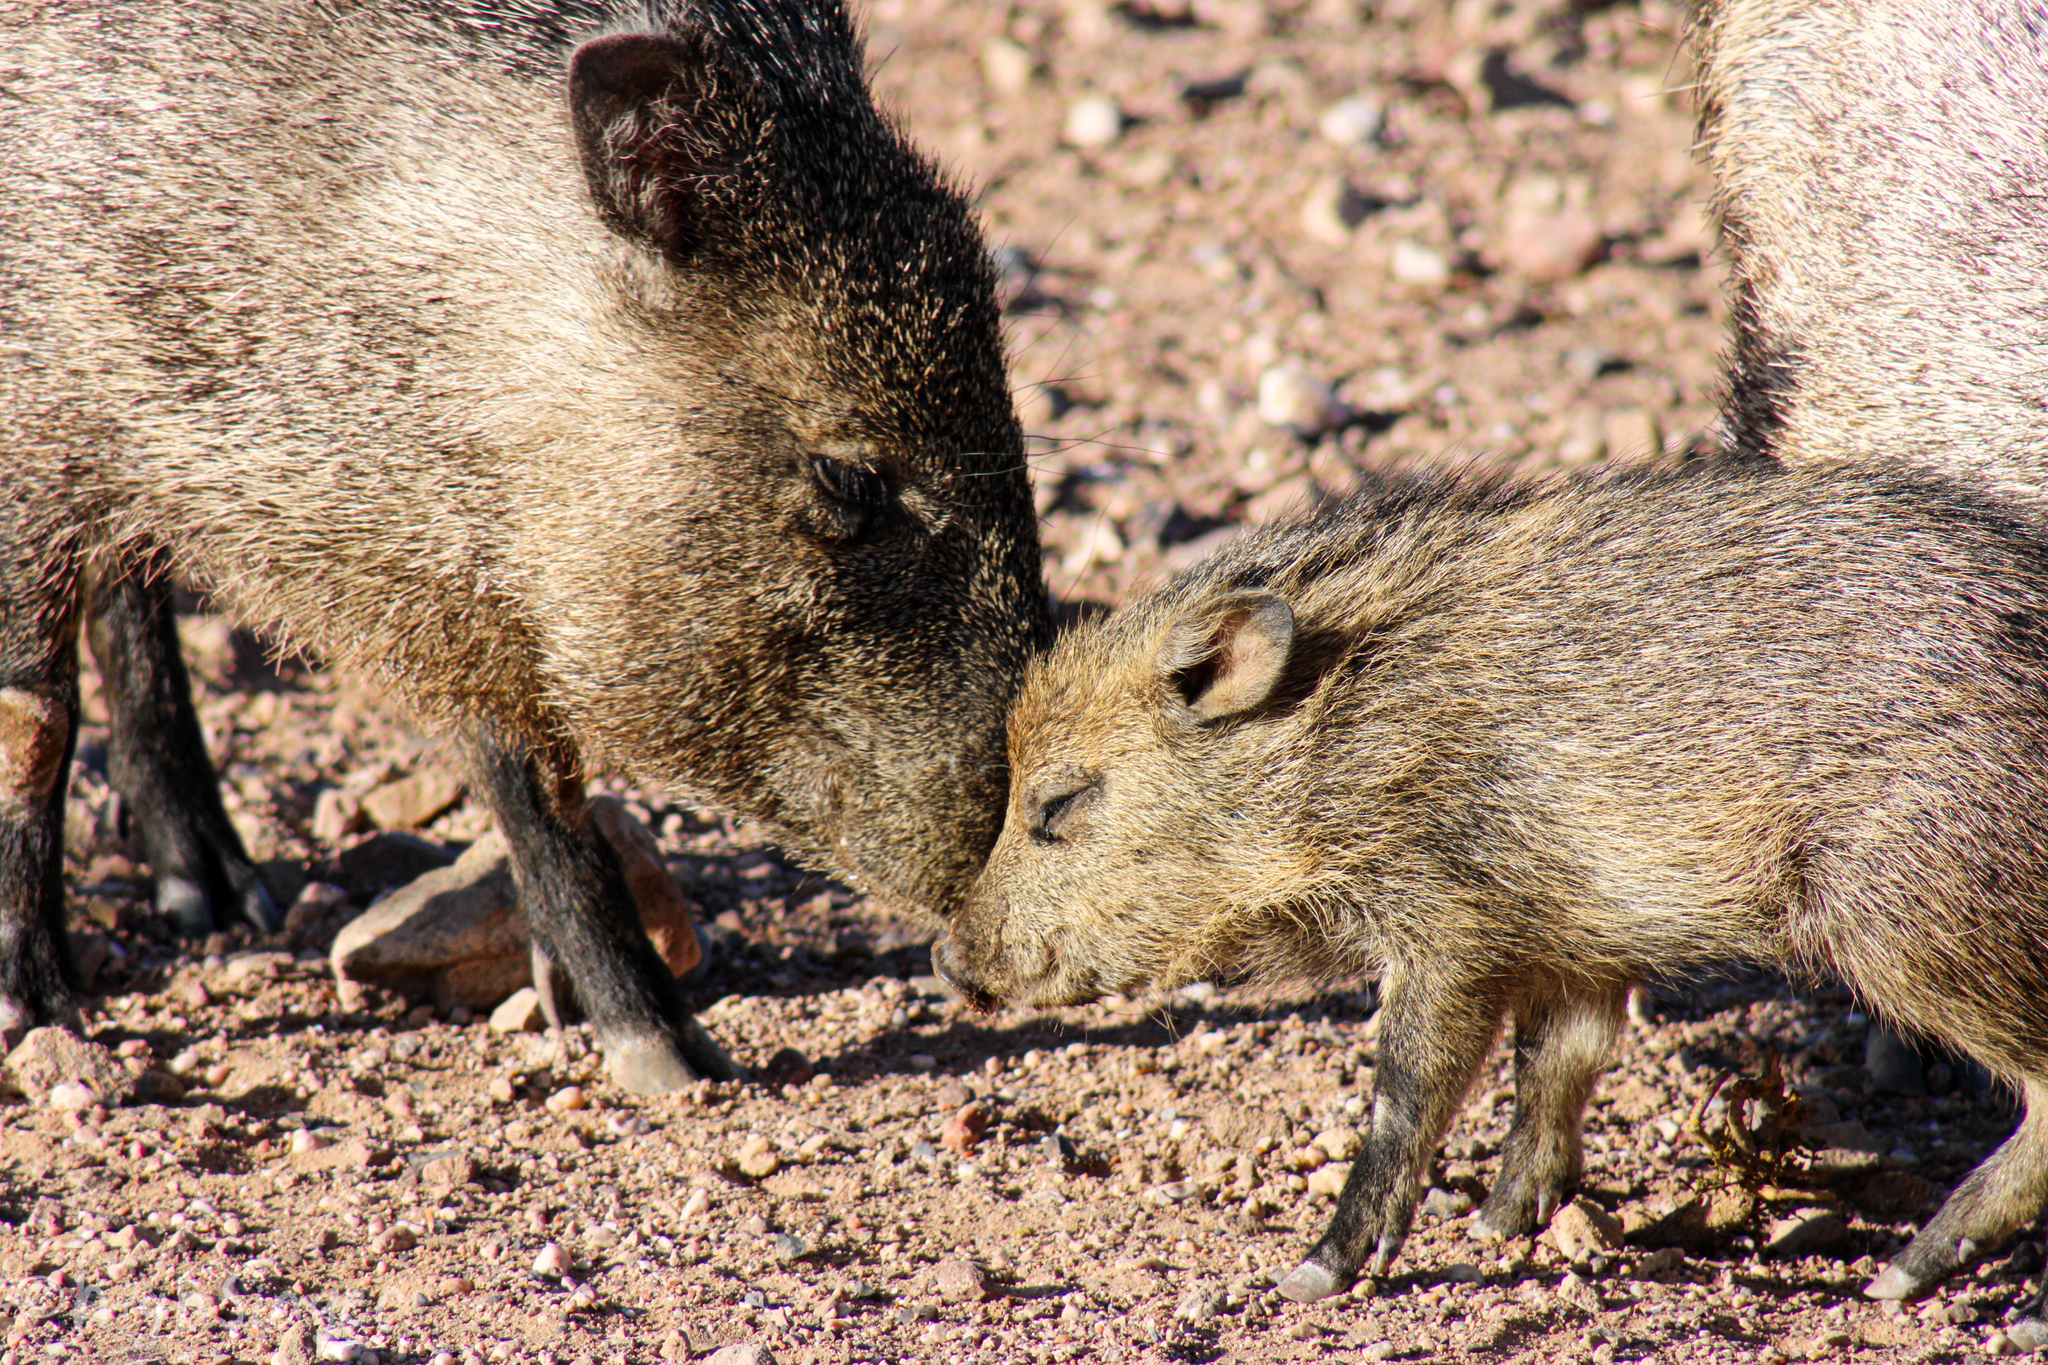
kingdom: Animalia
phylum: Chordata
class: Mammalia
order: Artiodactyla
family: Tayassuidae
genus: Pecari
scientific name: Pecari tajacu
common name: Collared peccary
